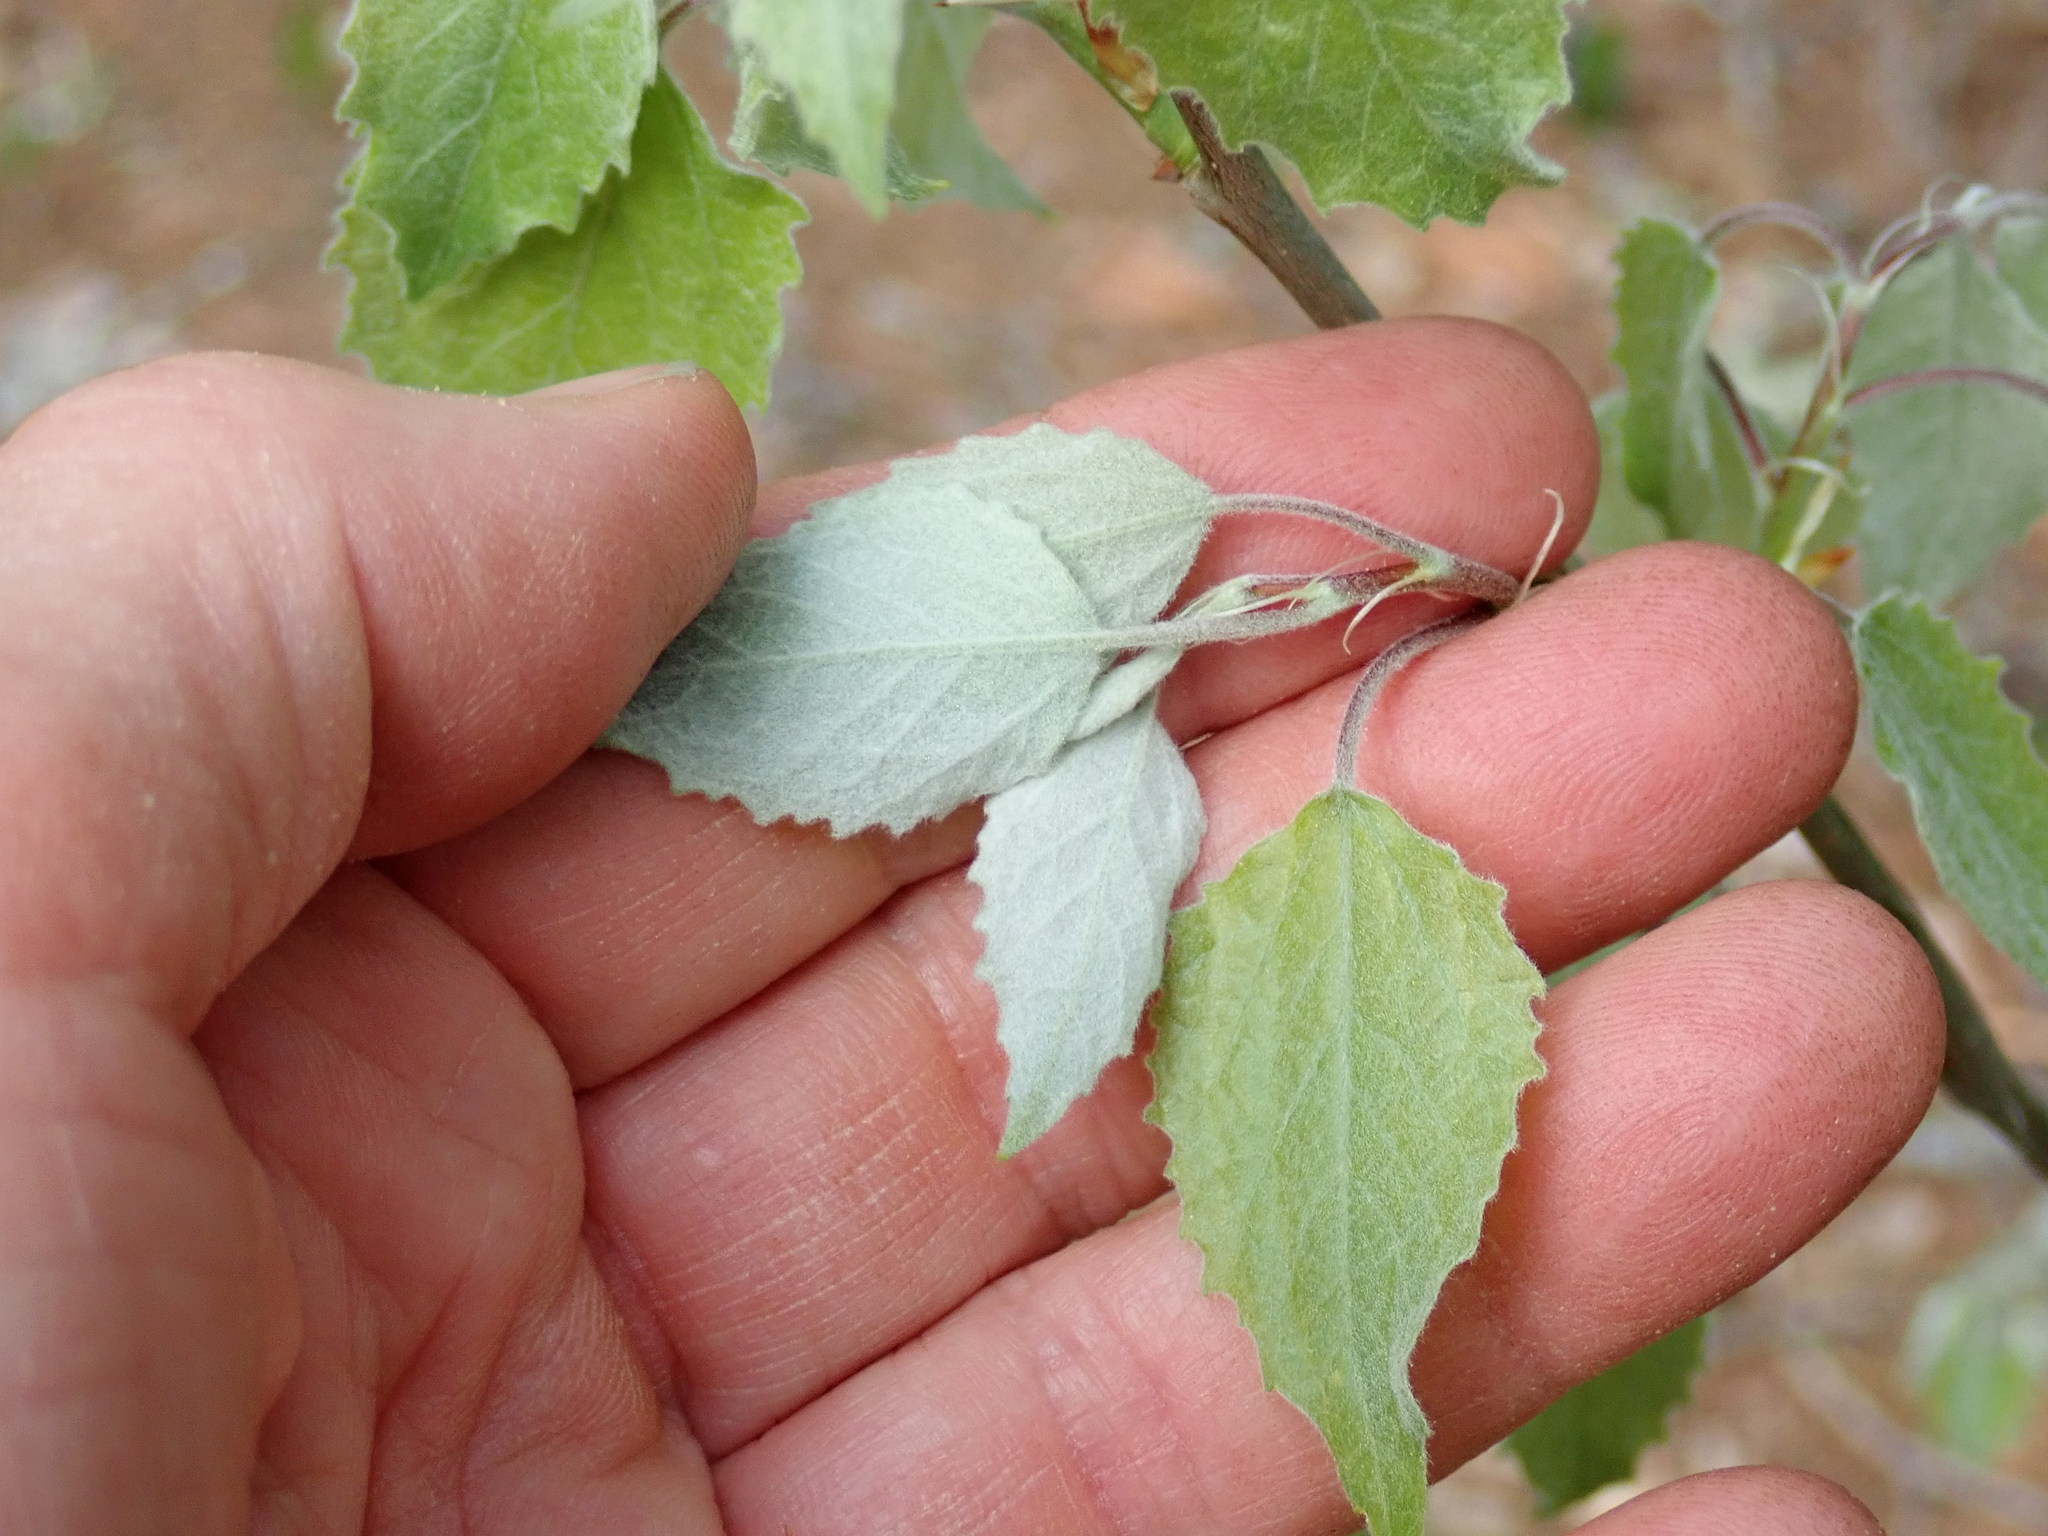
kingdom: Plantae
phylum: Tracheophyta
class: Magnoliopsida
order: Malpighiales
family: Salicaceae
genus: Populus
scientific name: Populus grandidentata
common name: Bigtooth aspen
